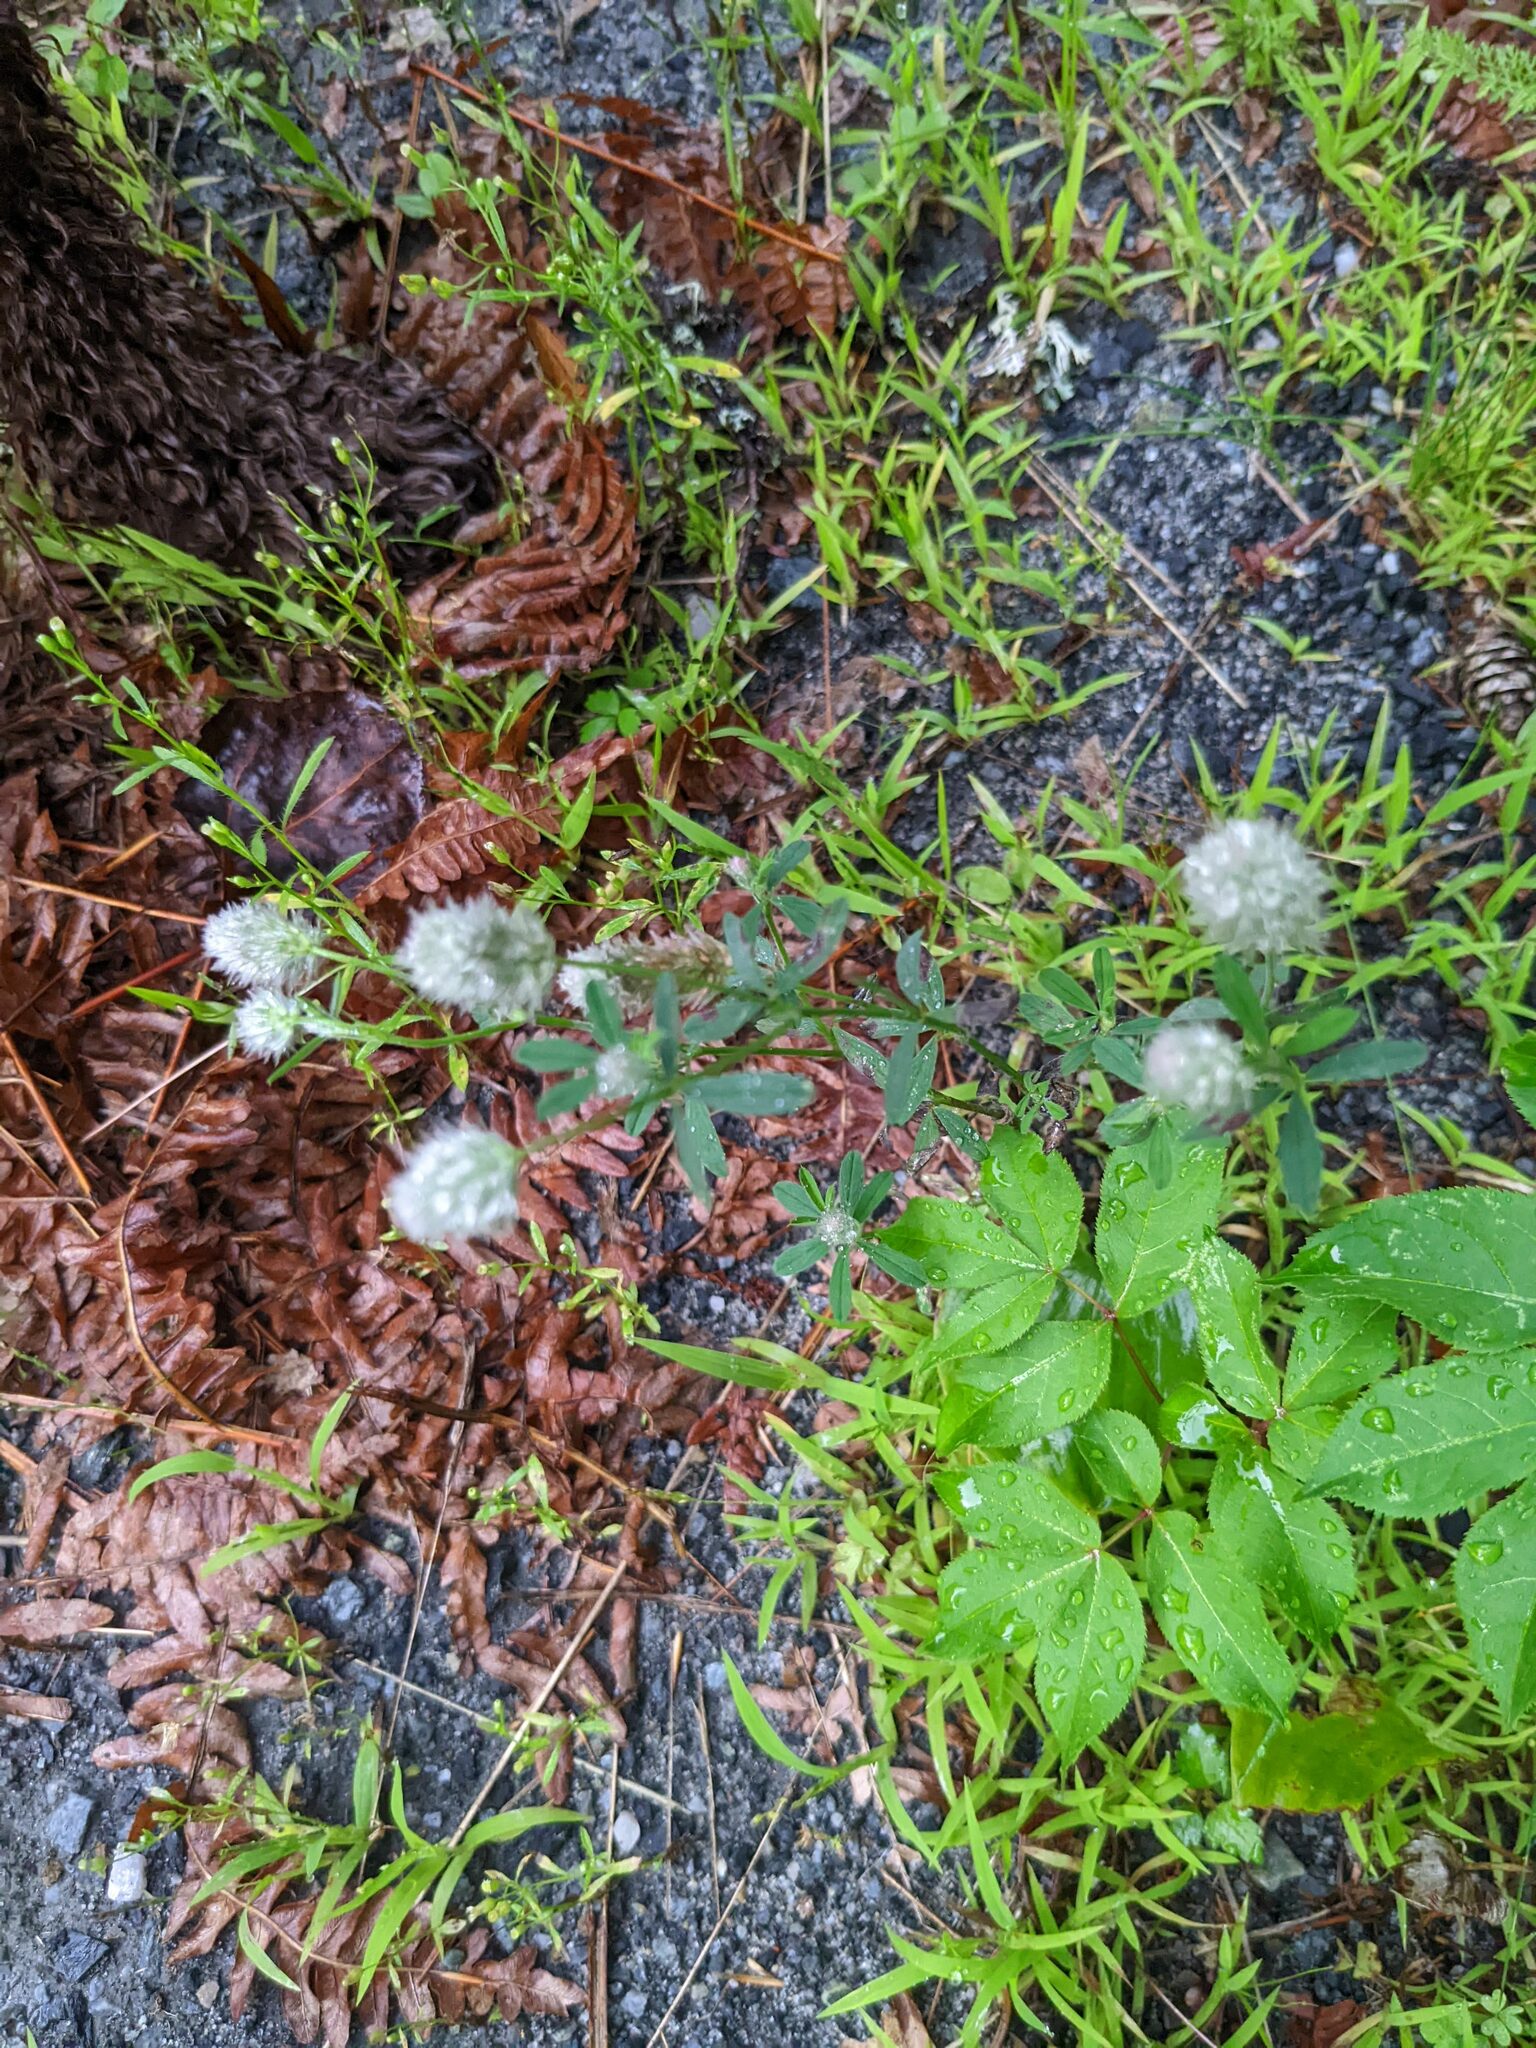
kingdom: Plantae
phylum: Tracheophyta
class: Magnoliopsida
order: Fabales
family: Fabaceae
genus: Trifolium
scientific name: Trifolium arvense
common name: Hare's-foot clover
